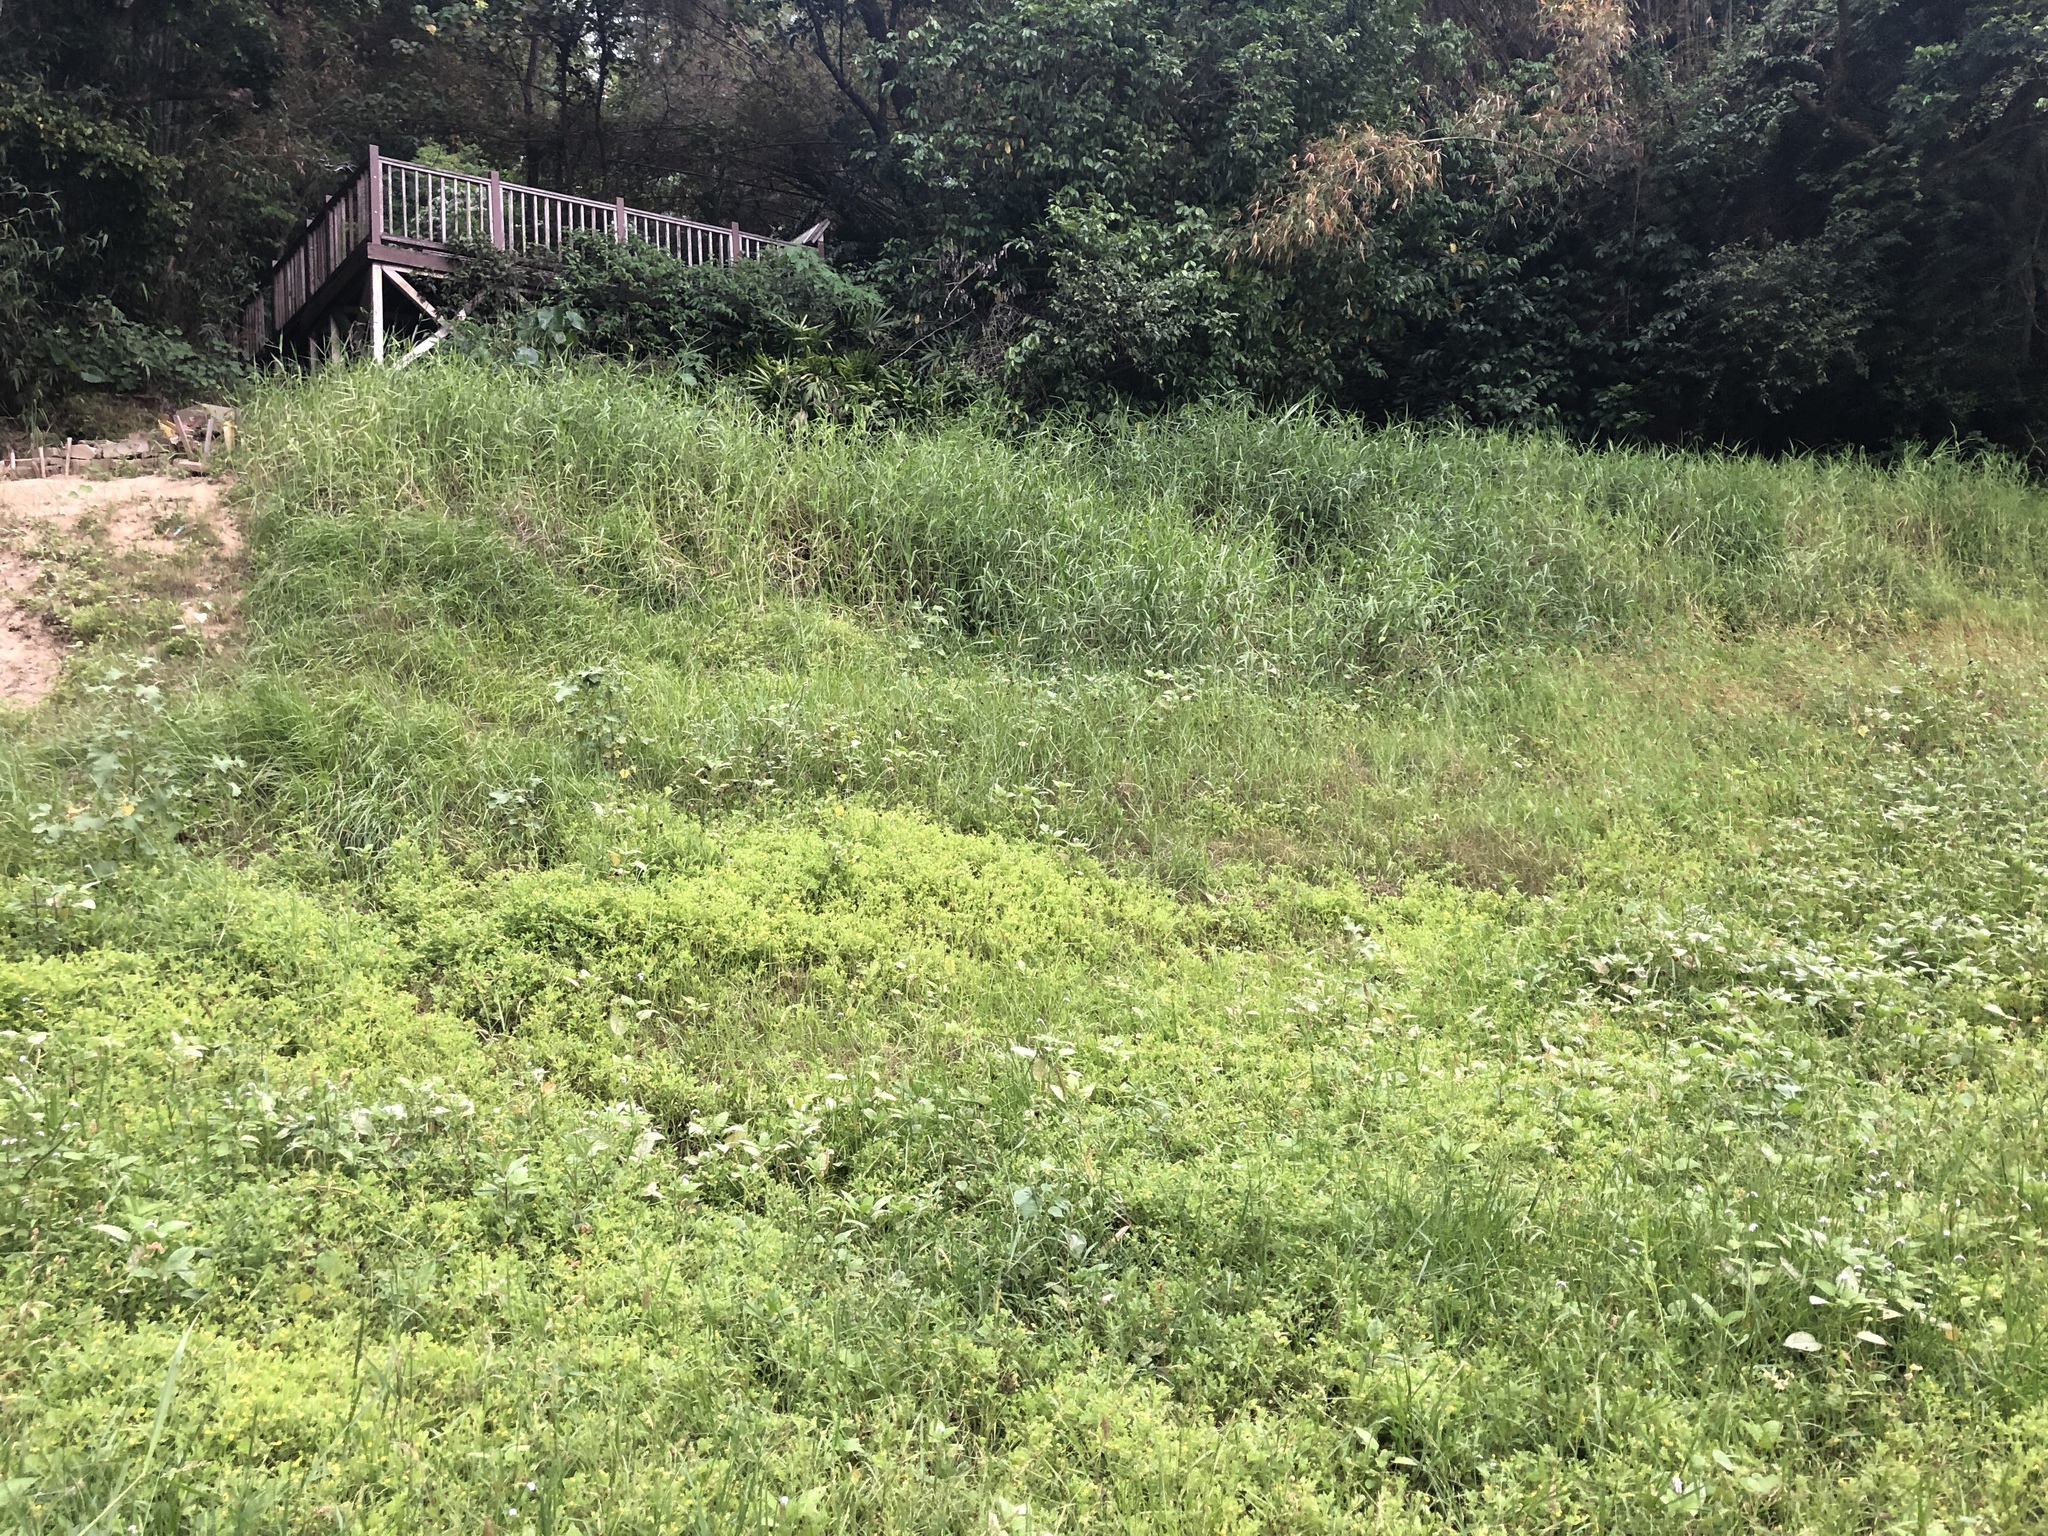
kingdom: Plantae
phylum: Tracheophyta
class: Magnoliopsida
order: Boraginales
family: Heliotropiaceae
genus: Euploca
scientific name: Euploca procumbens
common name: Fourspike heliotrope
